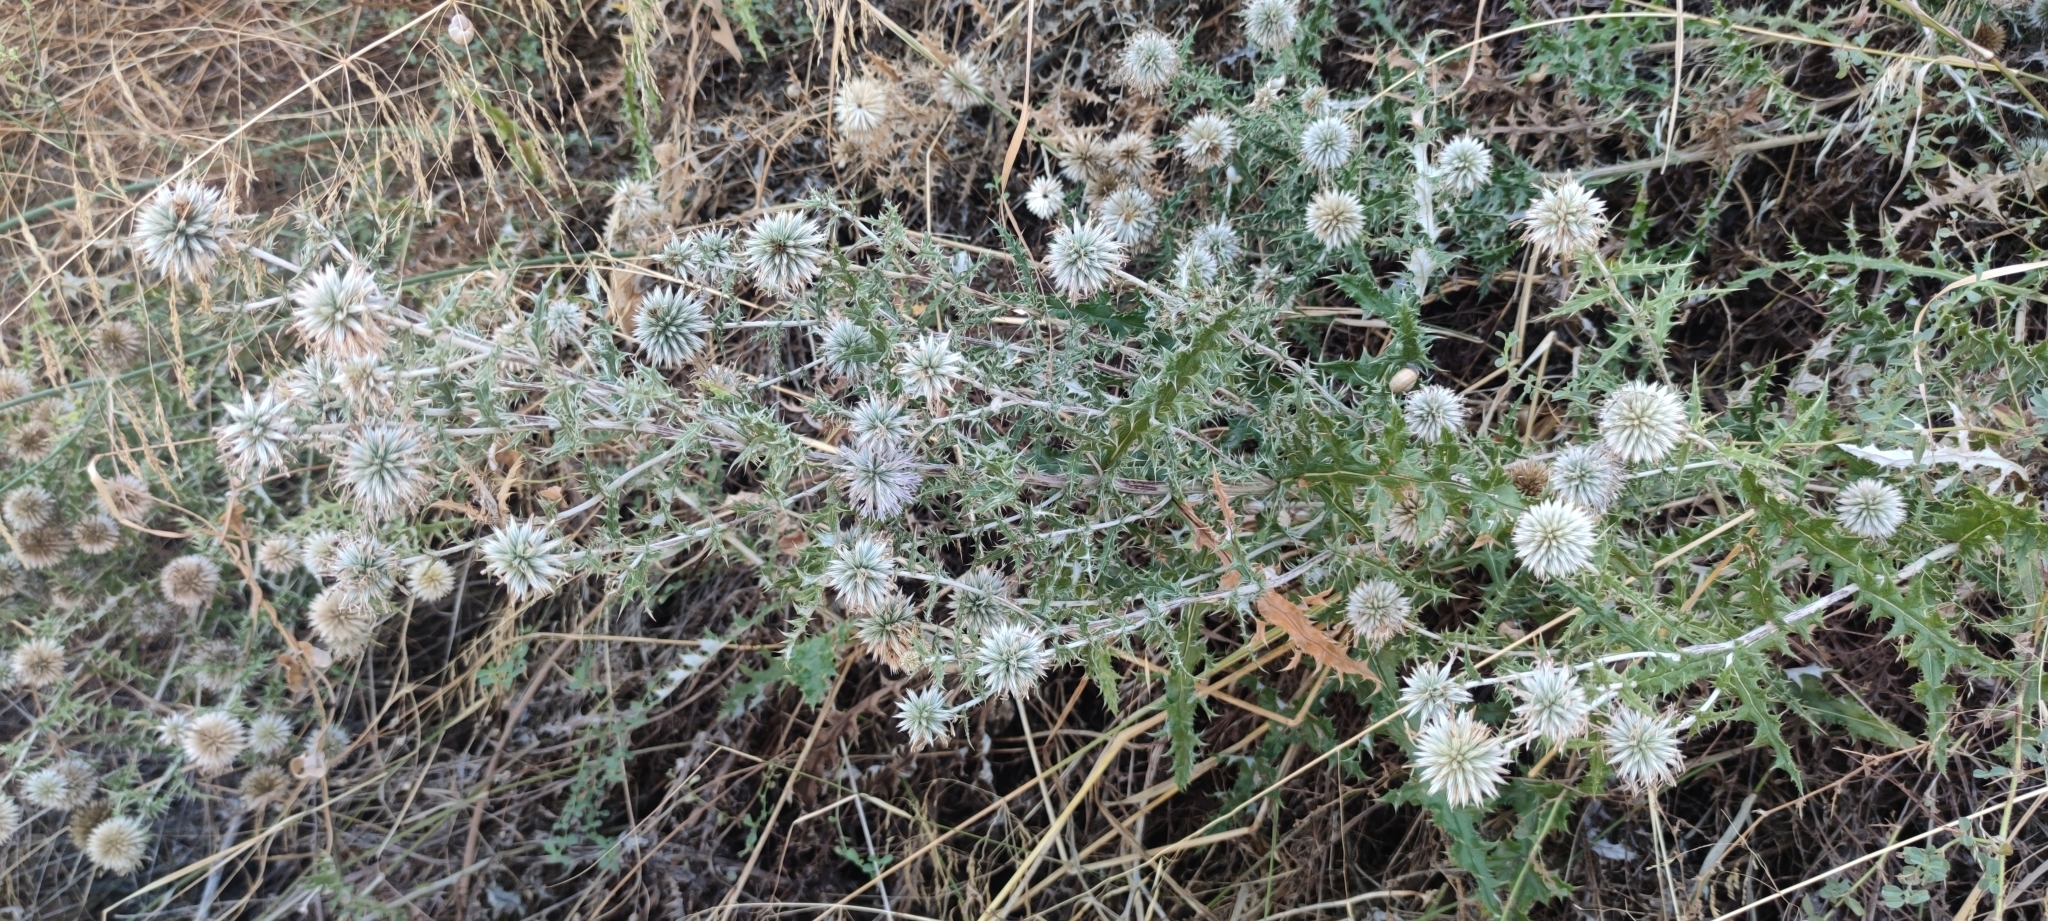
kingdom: Plantae
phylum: Tracheophyta
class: Magnoliopsida
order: Asterales
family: Asteraceae
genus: Echinops
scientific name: Echinops ritro
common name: Globe thistle
